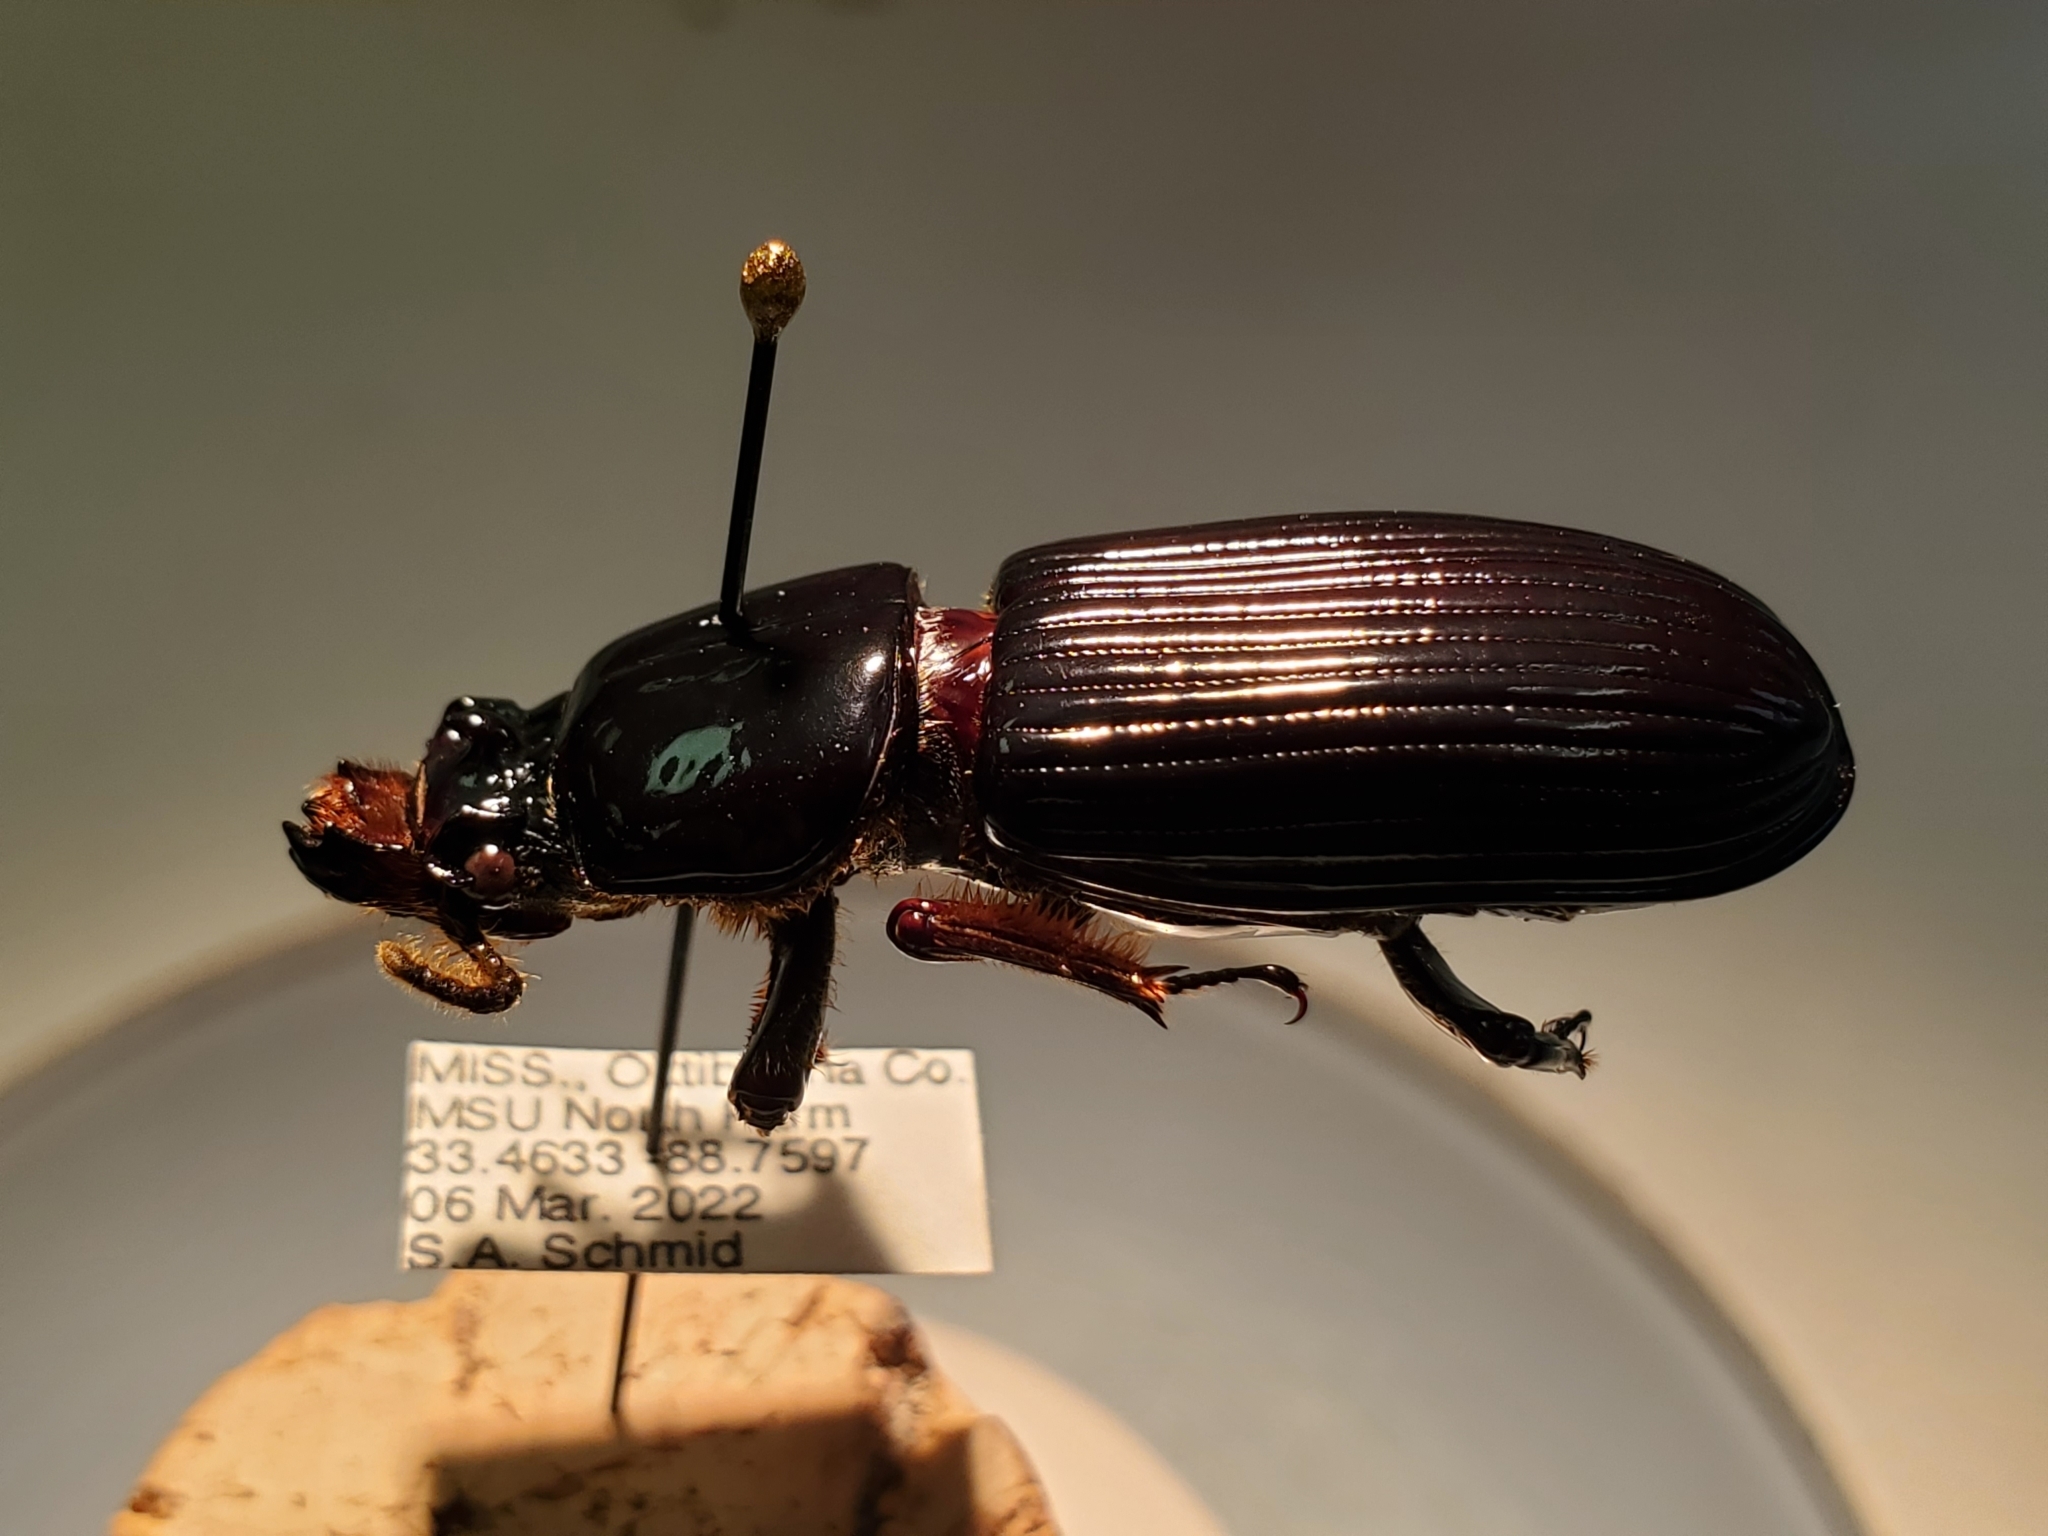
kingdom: Animalia
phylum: Arthropoda
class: Insecta
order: Coleoptera
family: Passalidae
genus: Odontotaenius
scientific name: Odontotaenius disjunctus
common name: Patent leather beetle
